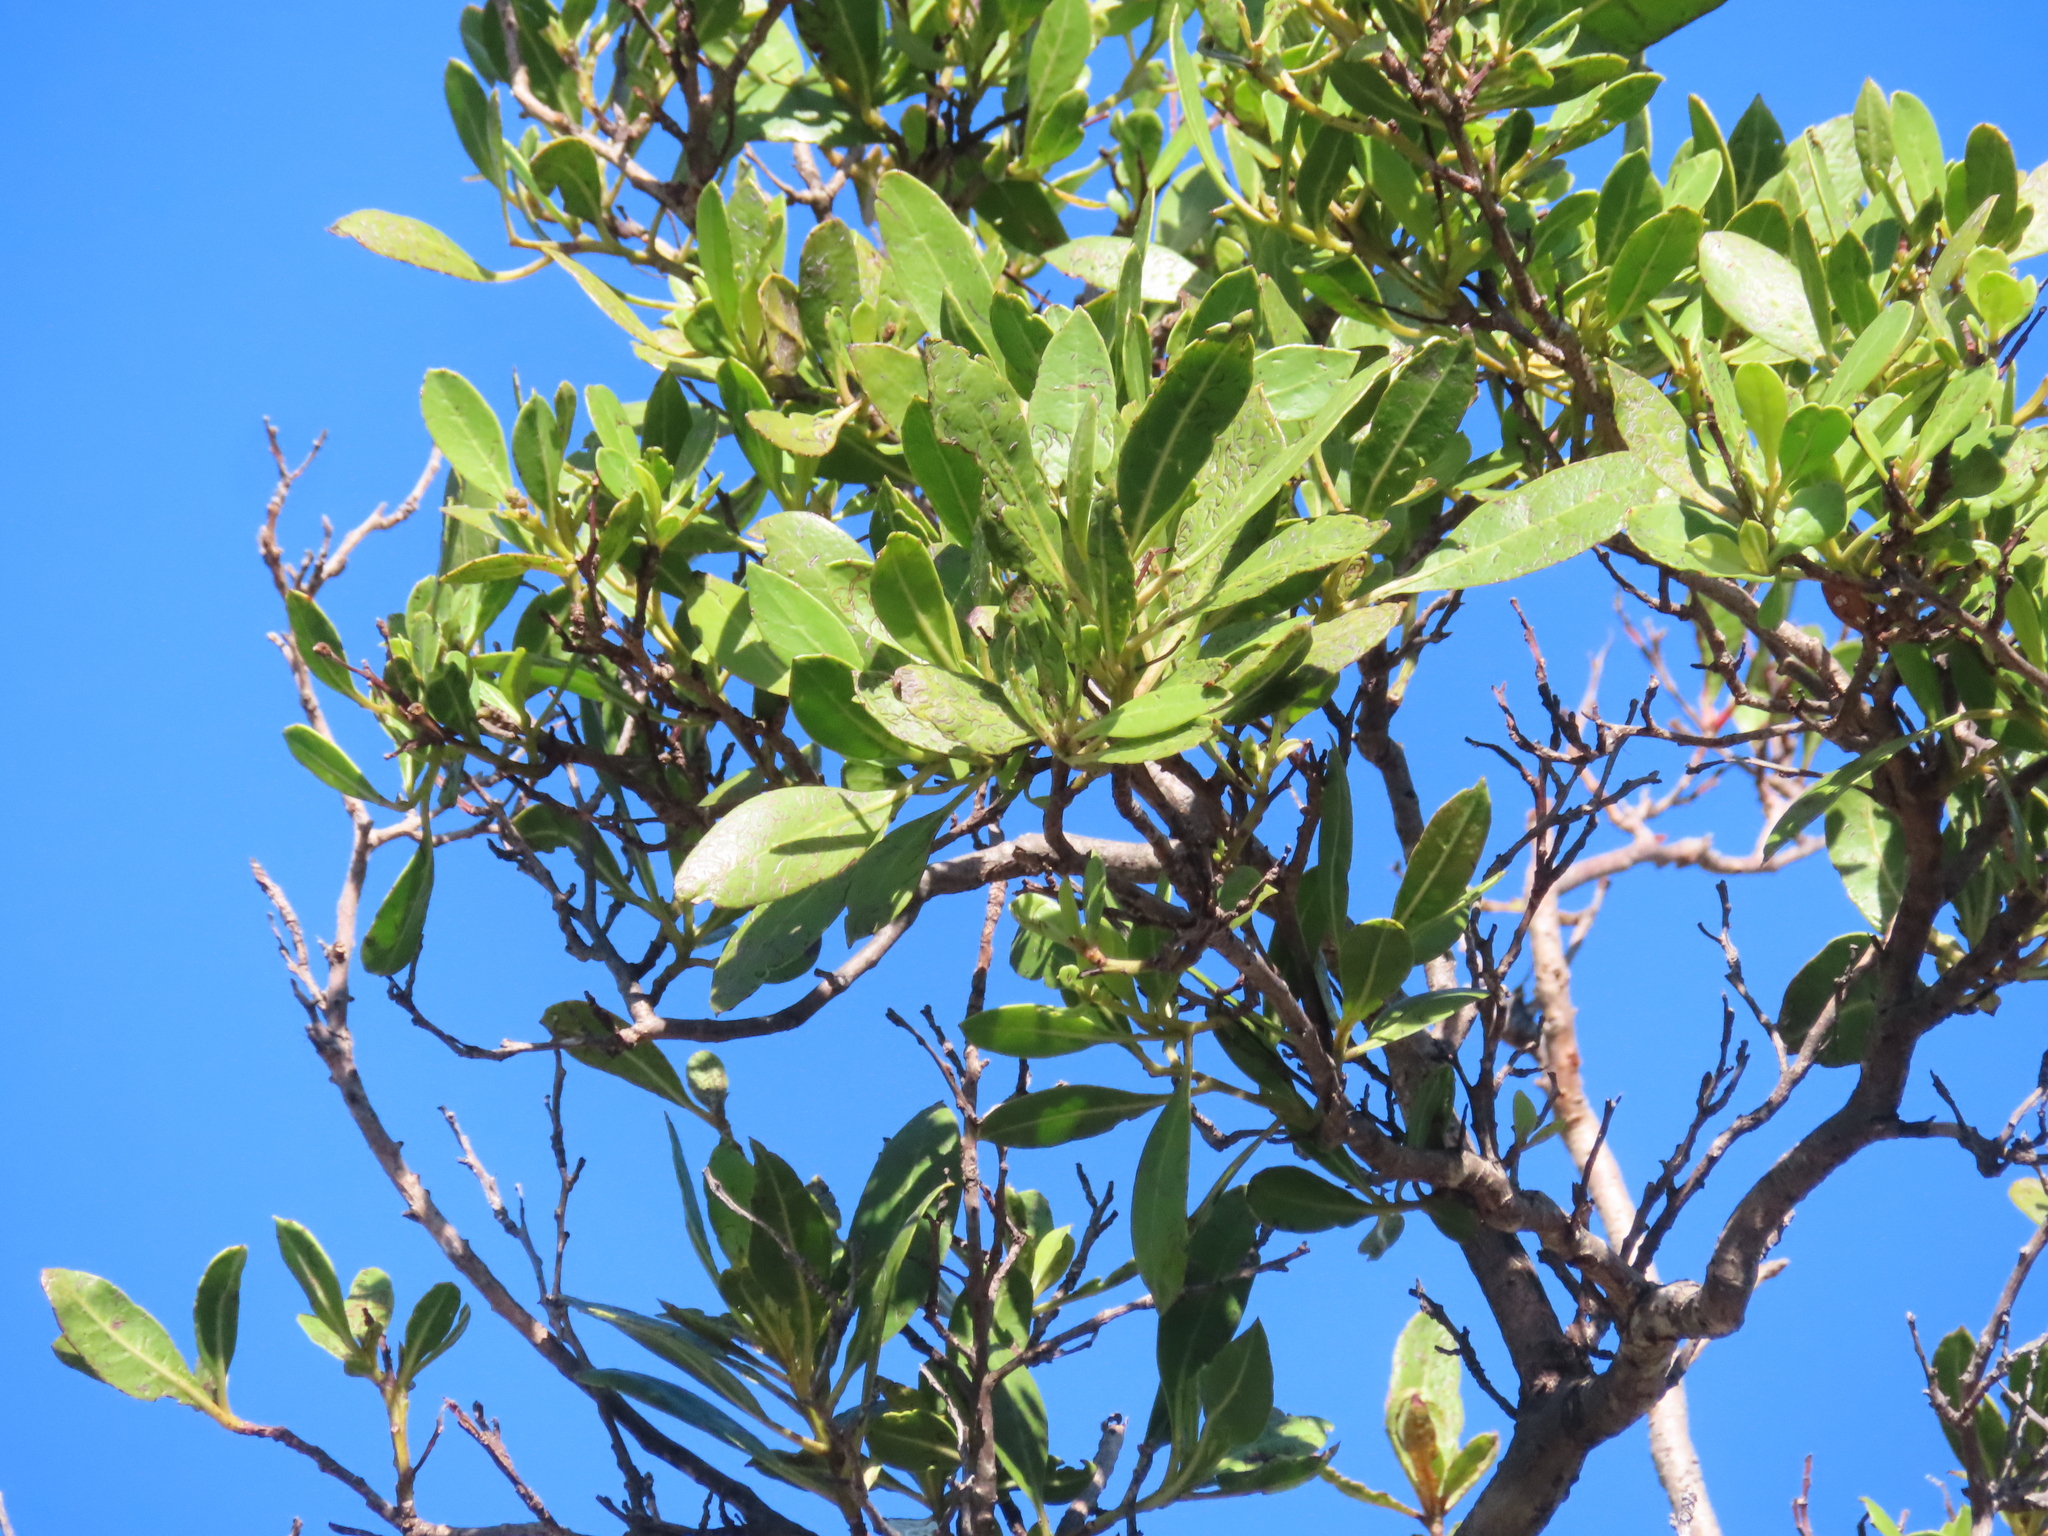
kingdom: Plantae
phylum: Tracheophyta
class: Magnoliopsida
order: Myrtales
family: Combretaceae
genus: Conocarpus
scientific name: Conocarpus erectus
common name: Button mangrove
